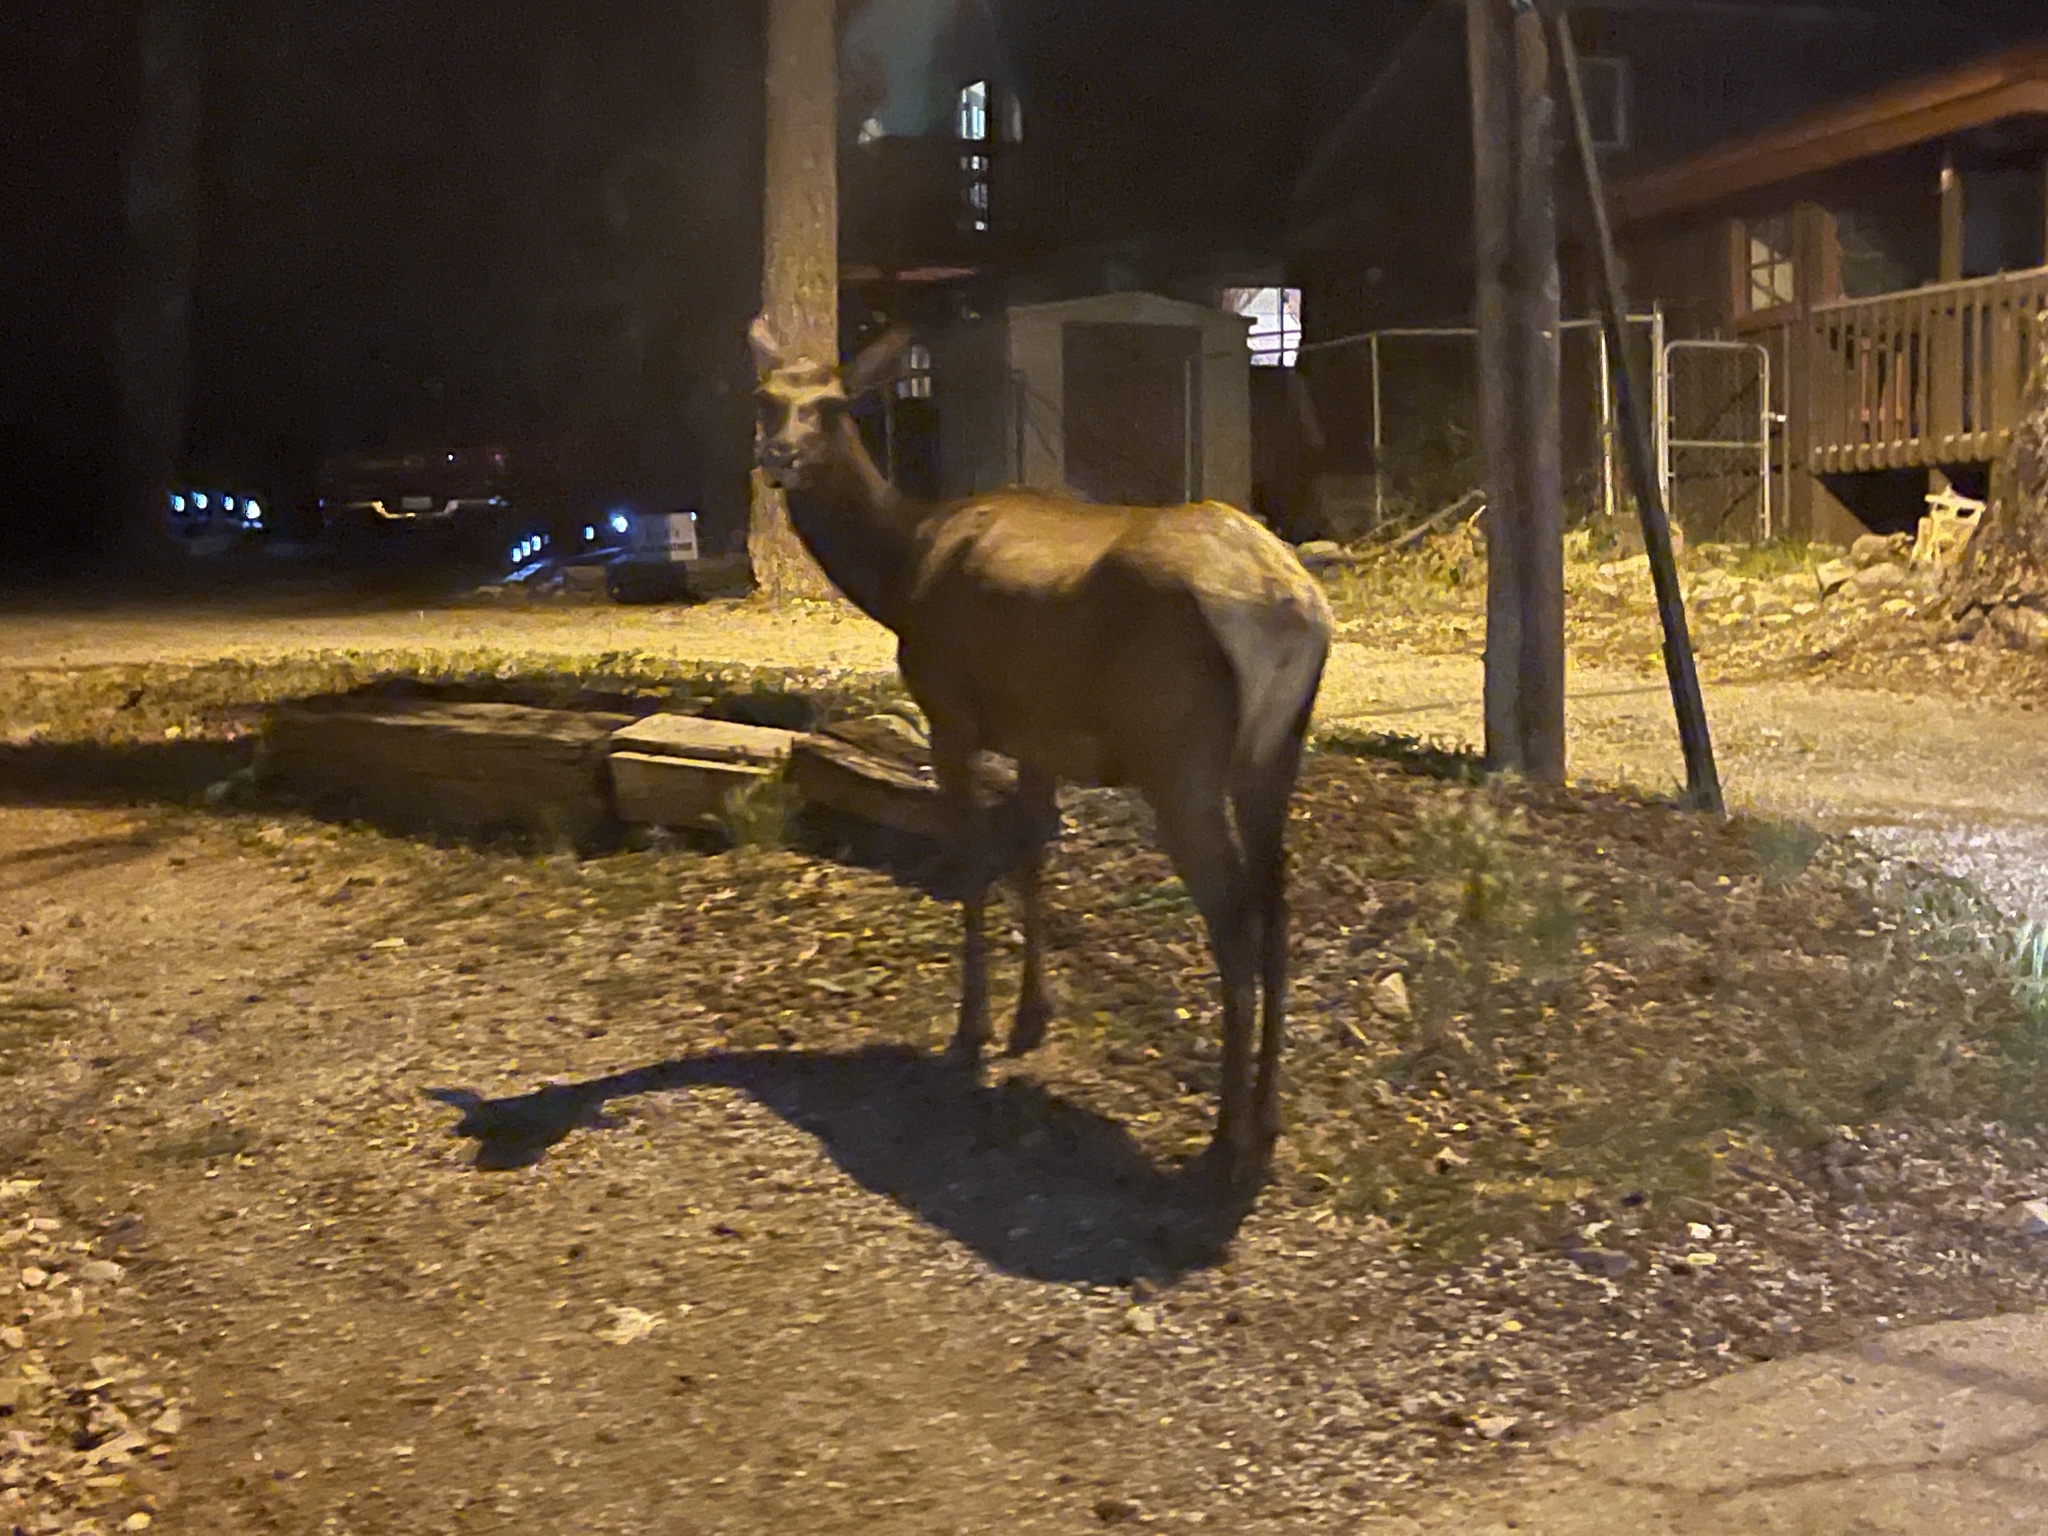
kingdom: Animalia
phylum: Chordata
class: Mammalia
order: Artiodactyla
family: Cervidae
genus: Cervus
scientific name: Cervus elaphus
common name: Red deer
